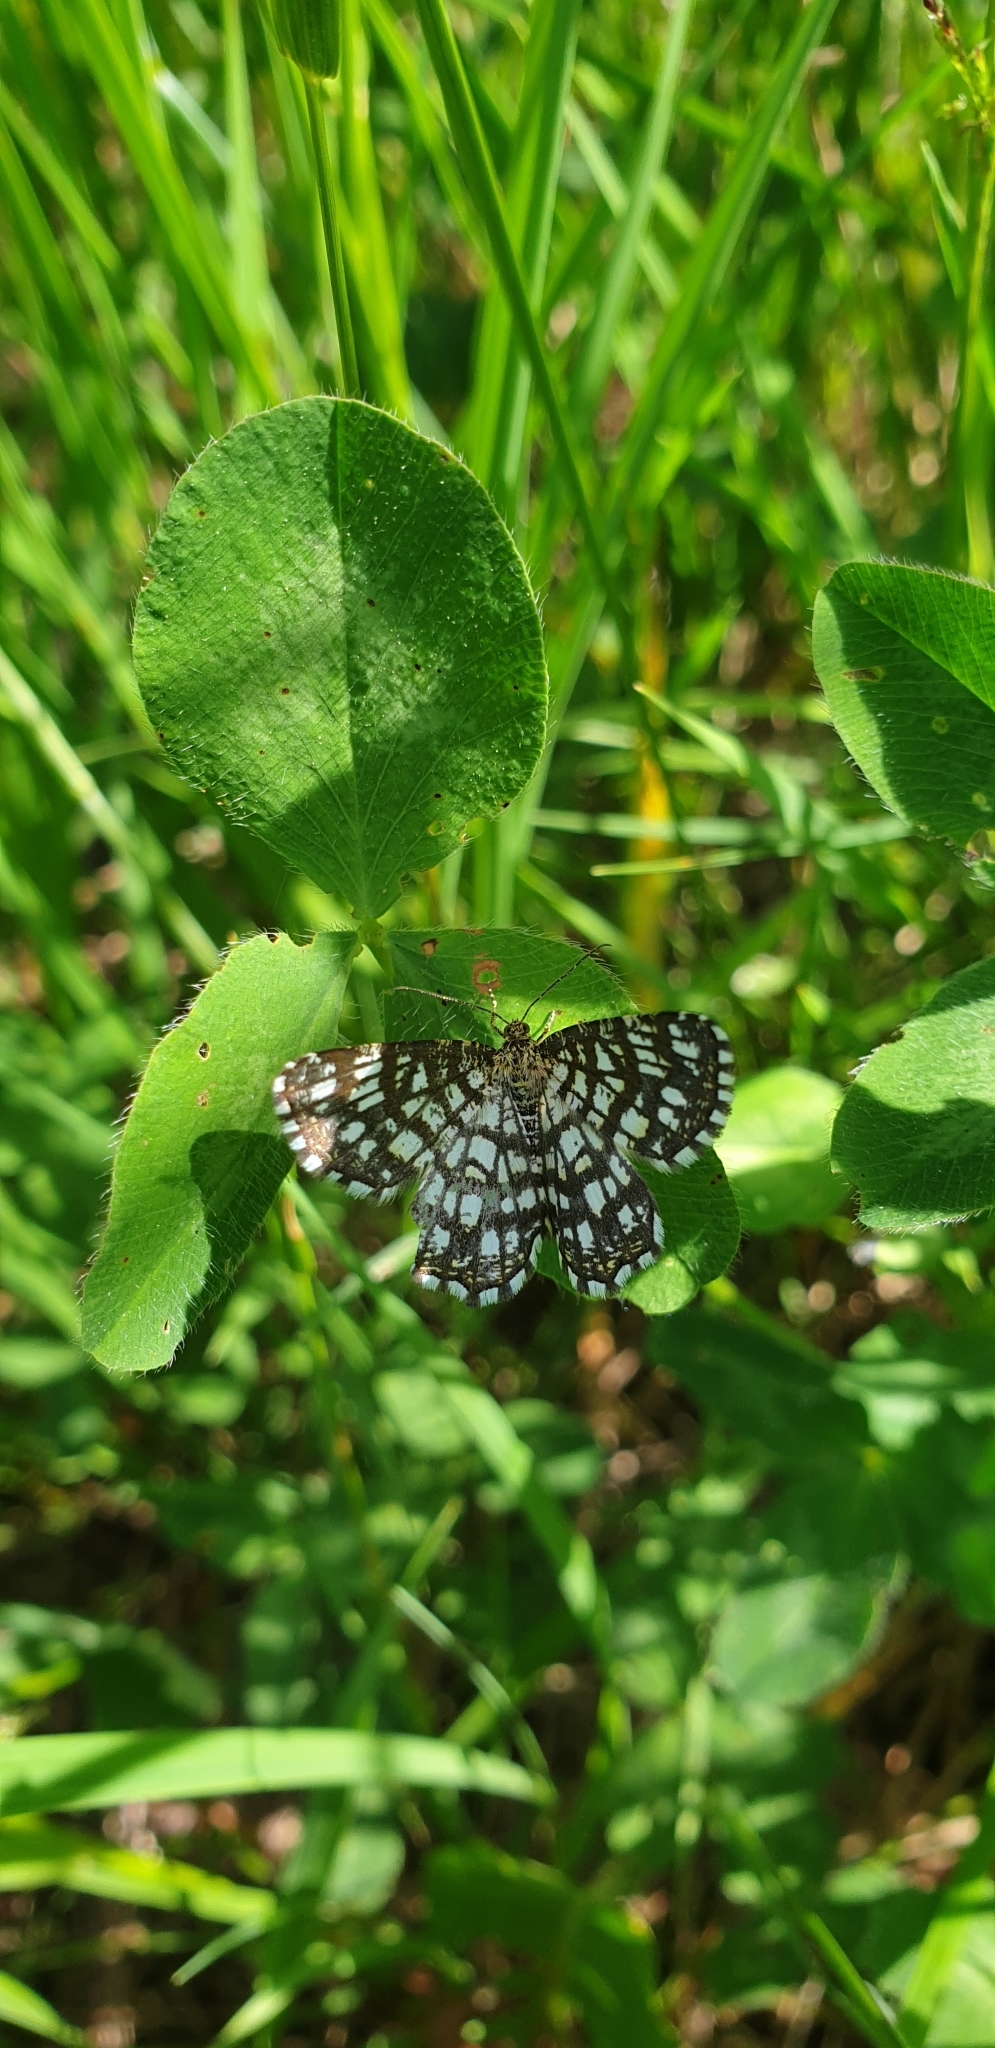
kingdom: Animalia
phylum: Arthropoda
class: Insecta
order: Lepidoptera
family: Geometridae
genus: Chiasmia
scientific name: Chiasmia clathrata
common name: Latticed heath
